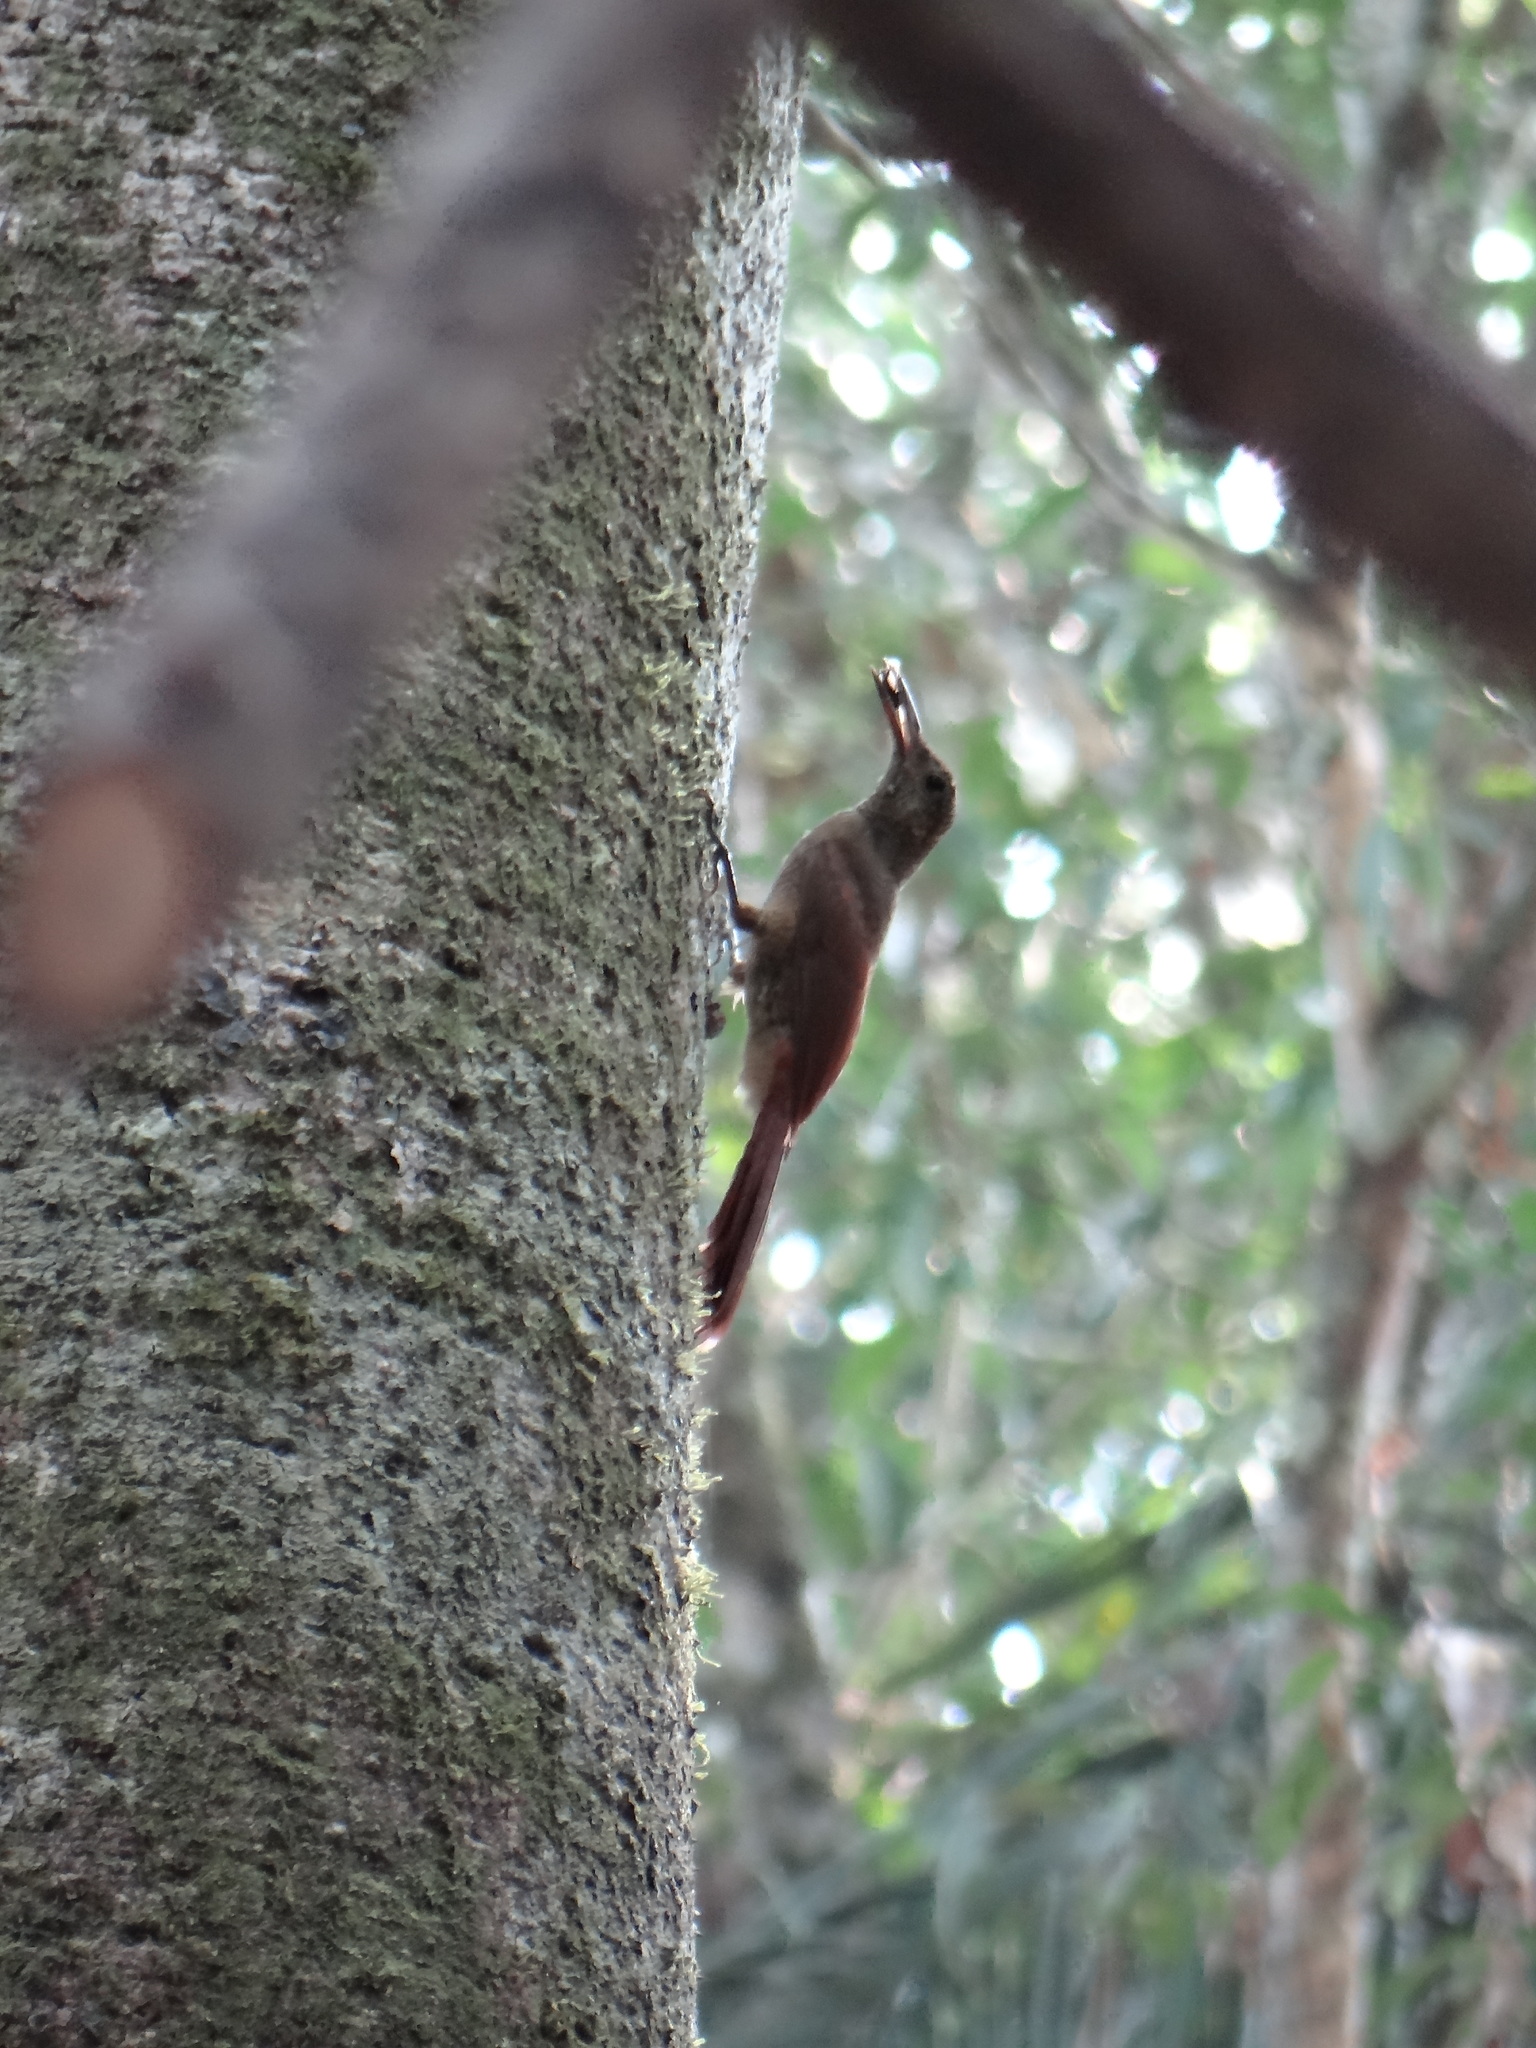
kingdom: Animalia
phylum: Chordata
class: Aves
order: Passeriformes
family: Furnariidae
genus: Dendrocolaptes
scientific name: Dendrocolaptes certhia
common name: Amazonian barred woodcreeper
